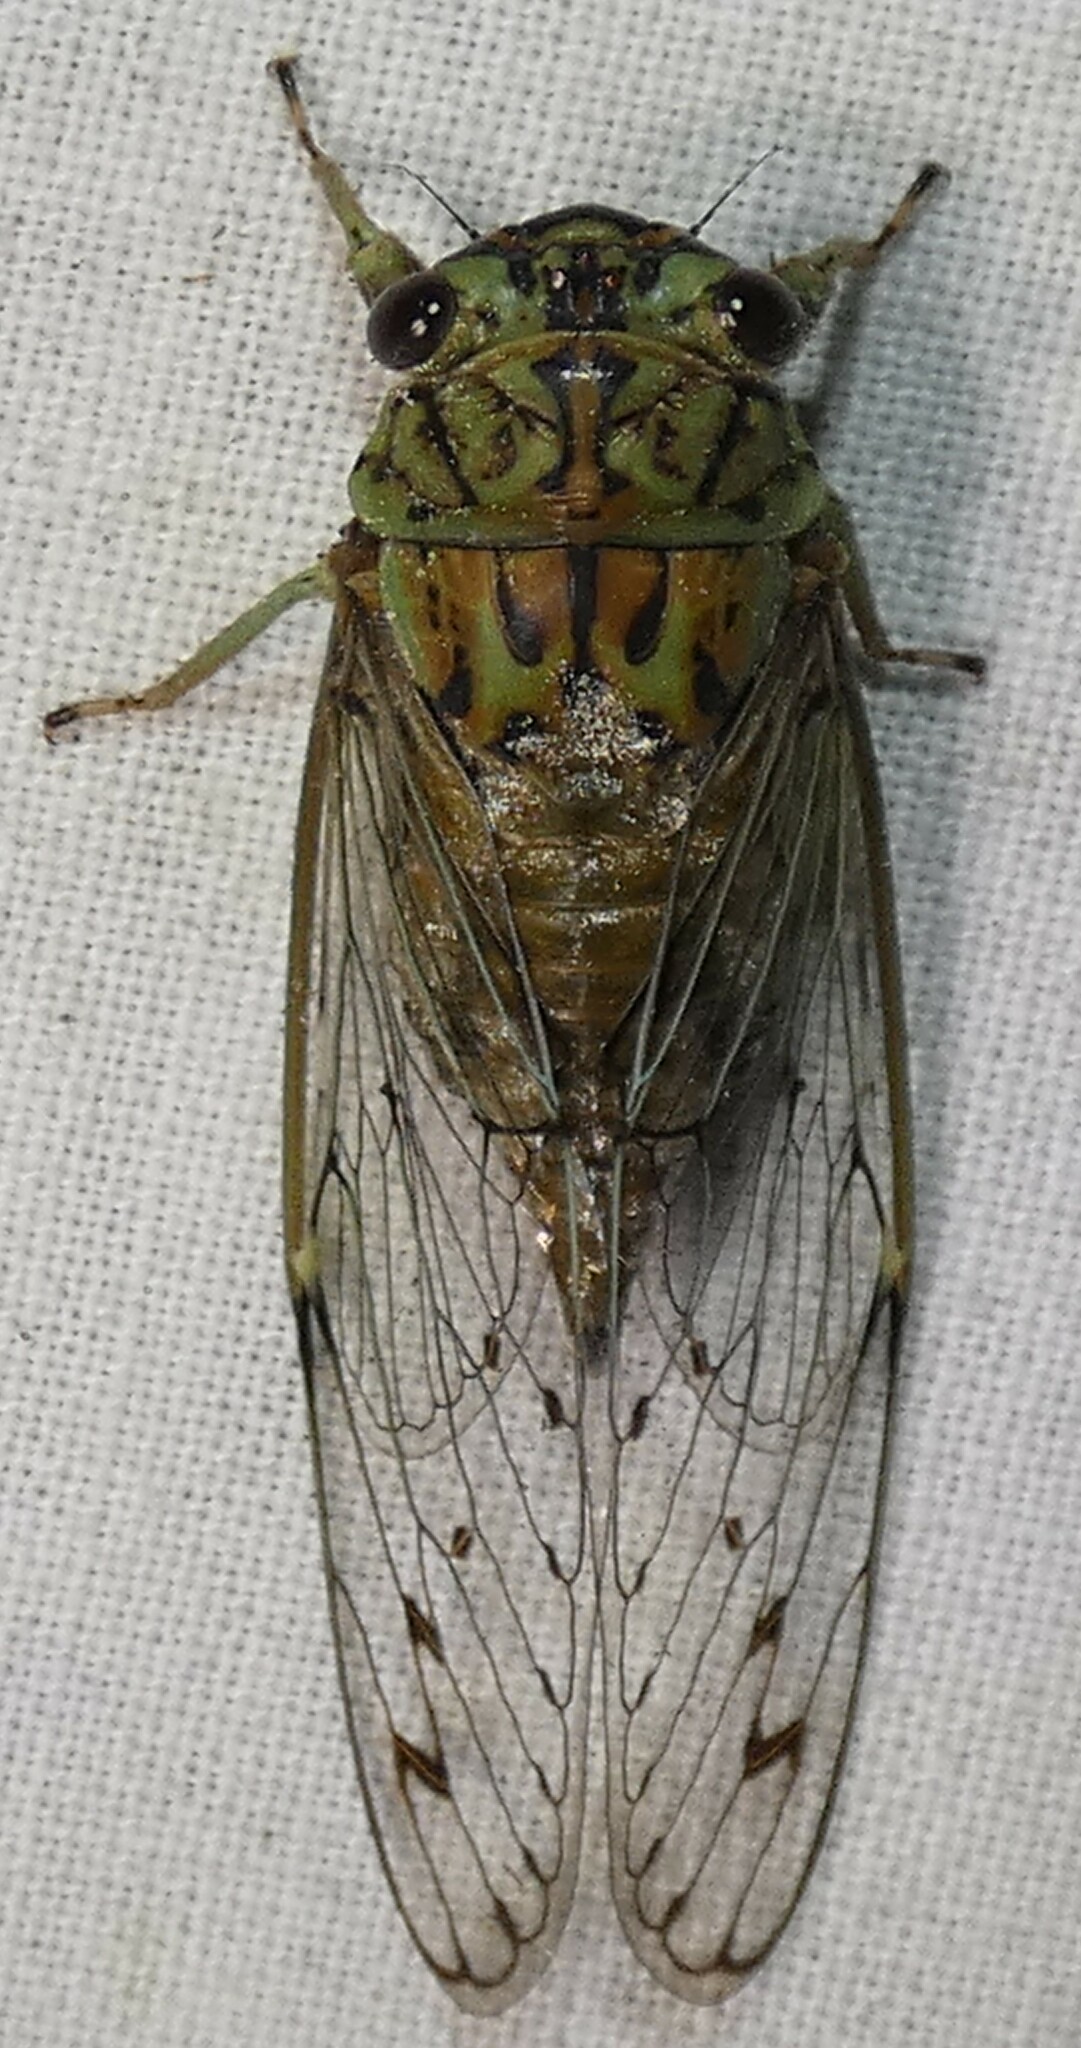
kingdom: Animalia
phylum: Arthropoda
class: Insecta
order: Hemiptera
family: Cicadidae
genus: Neocicada
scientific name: Neocicada hieroglyphica
